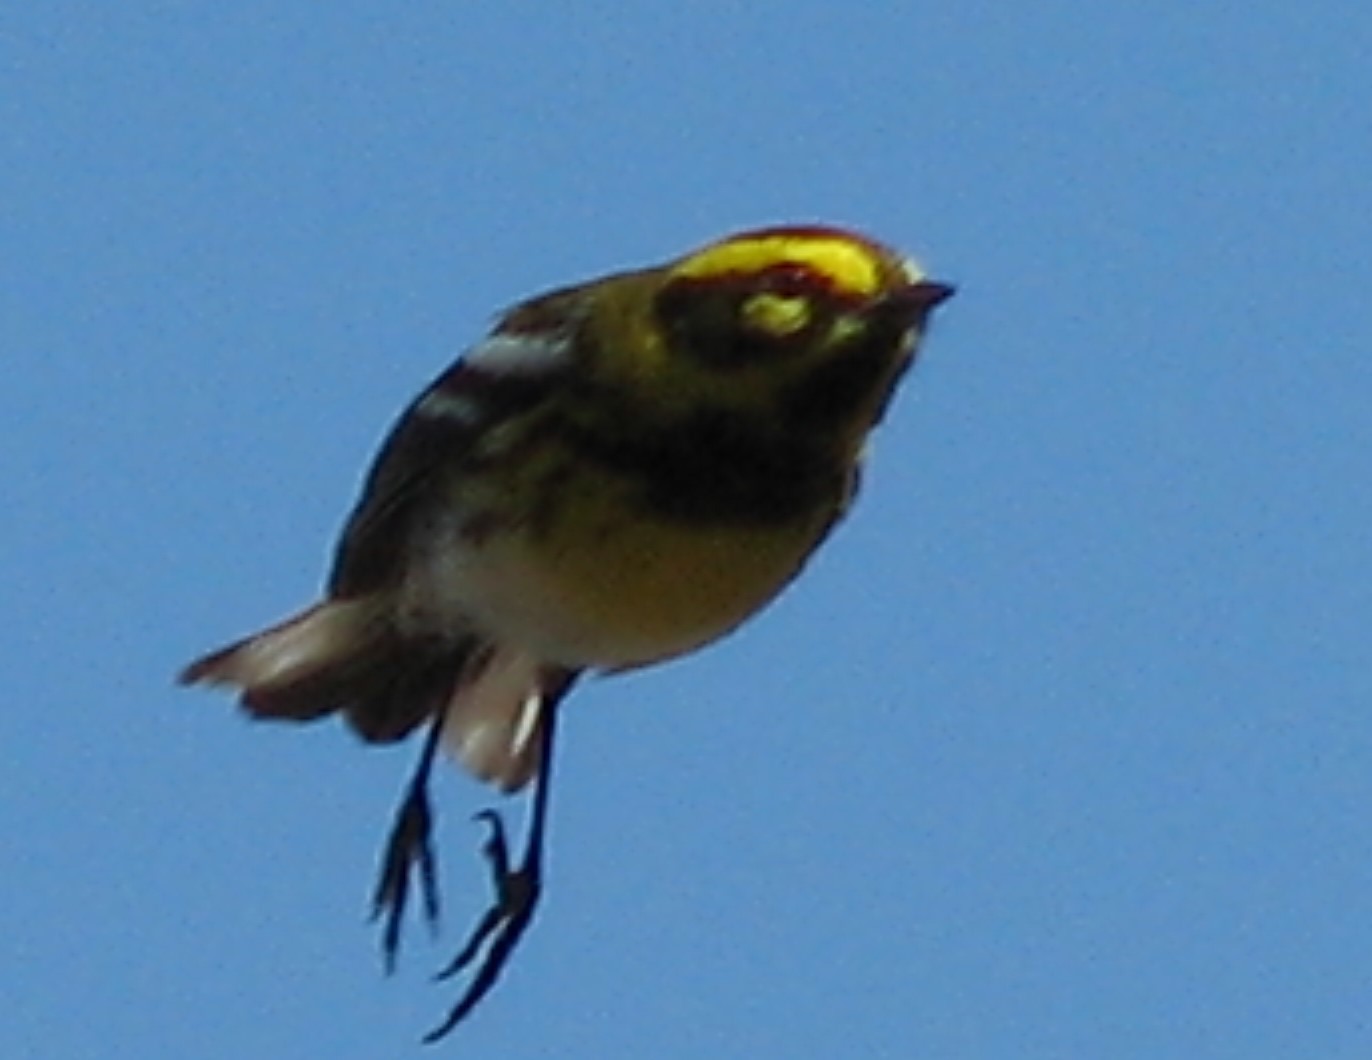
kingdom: Animalia
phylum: Chordata
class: Aves
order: Passeriformes
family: Parulidae
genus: Setophaga
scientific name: Setophaga townsendi
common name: Townsend's warbler
